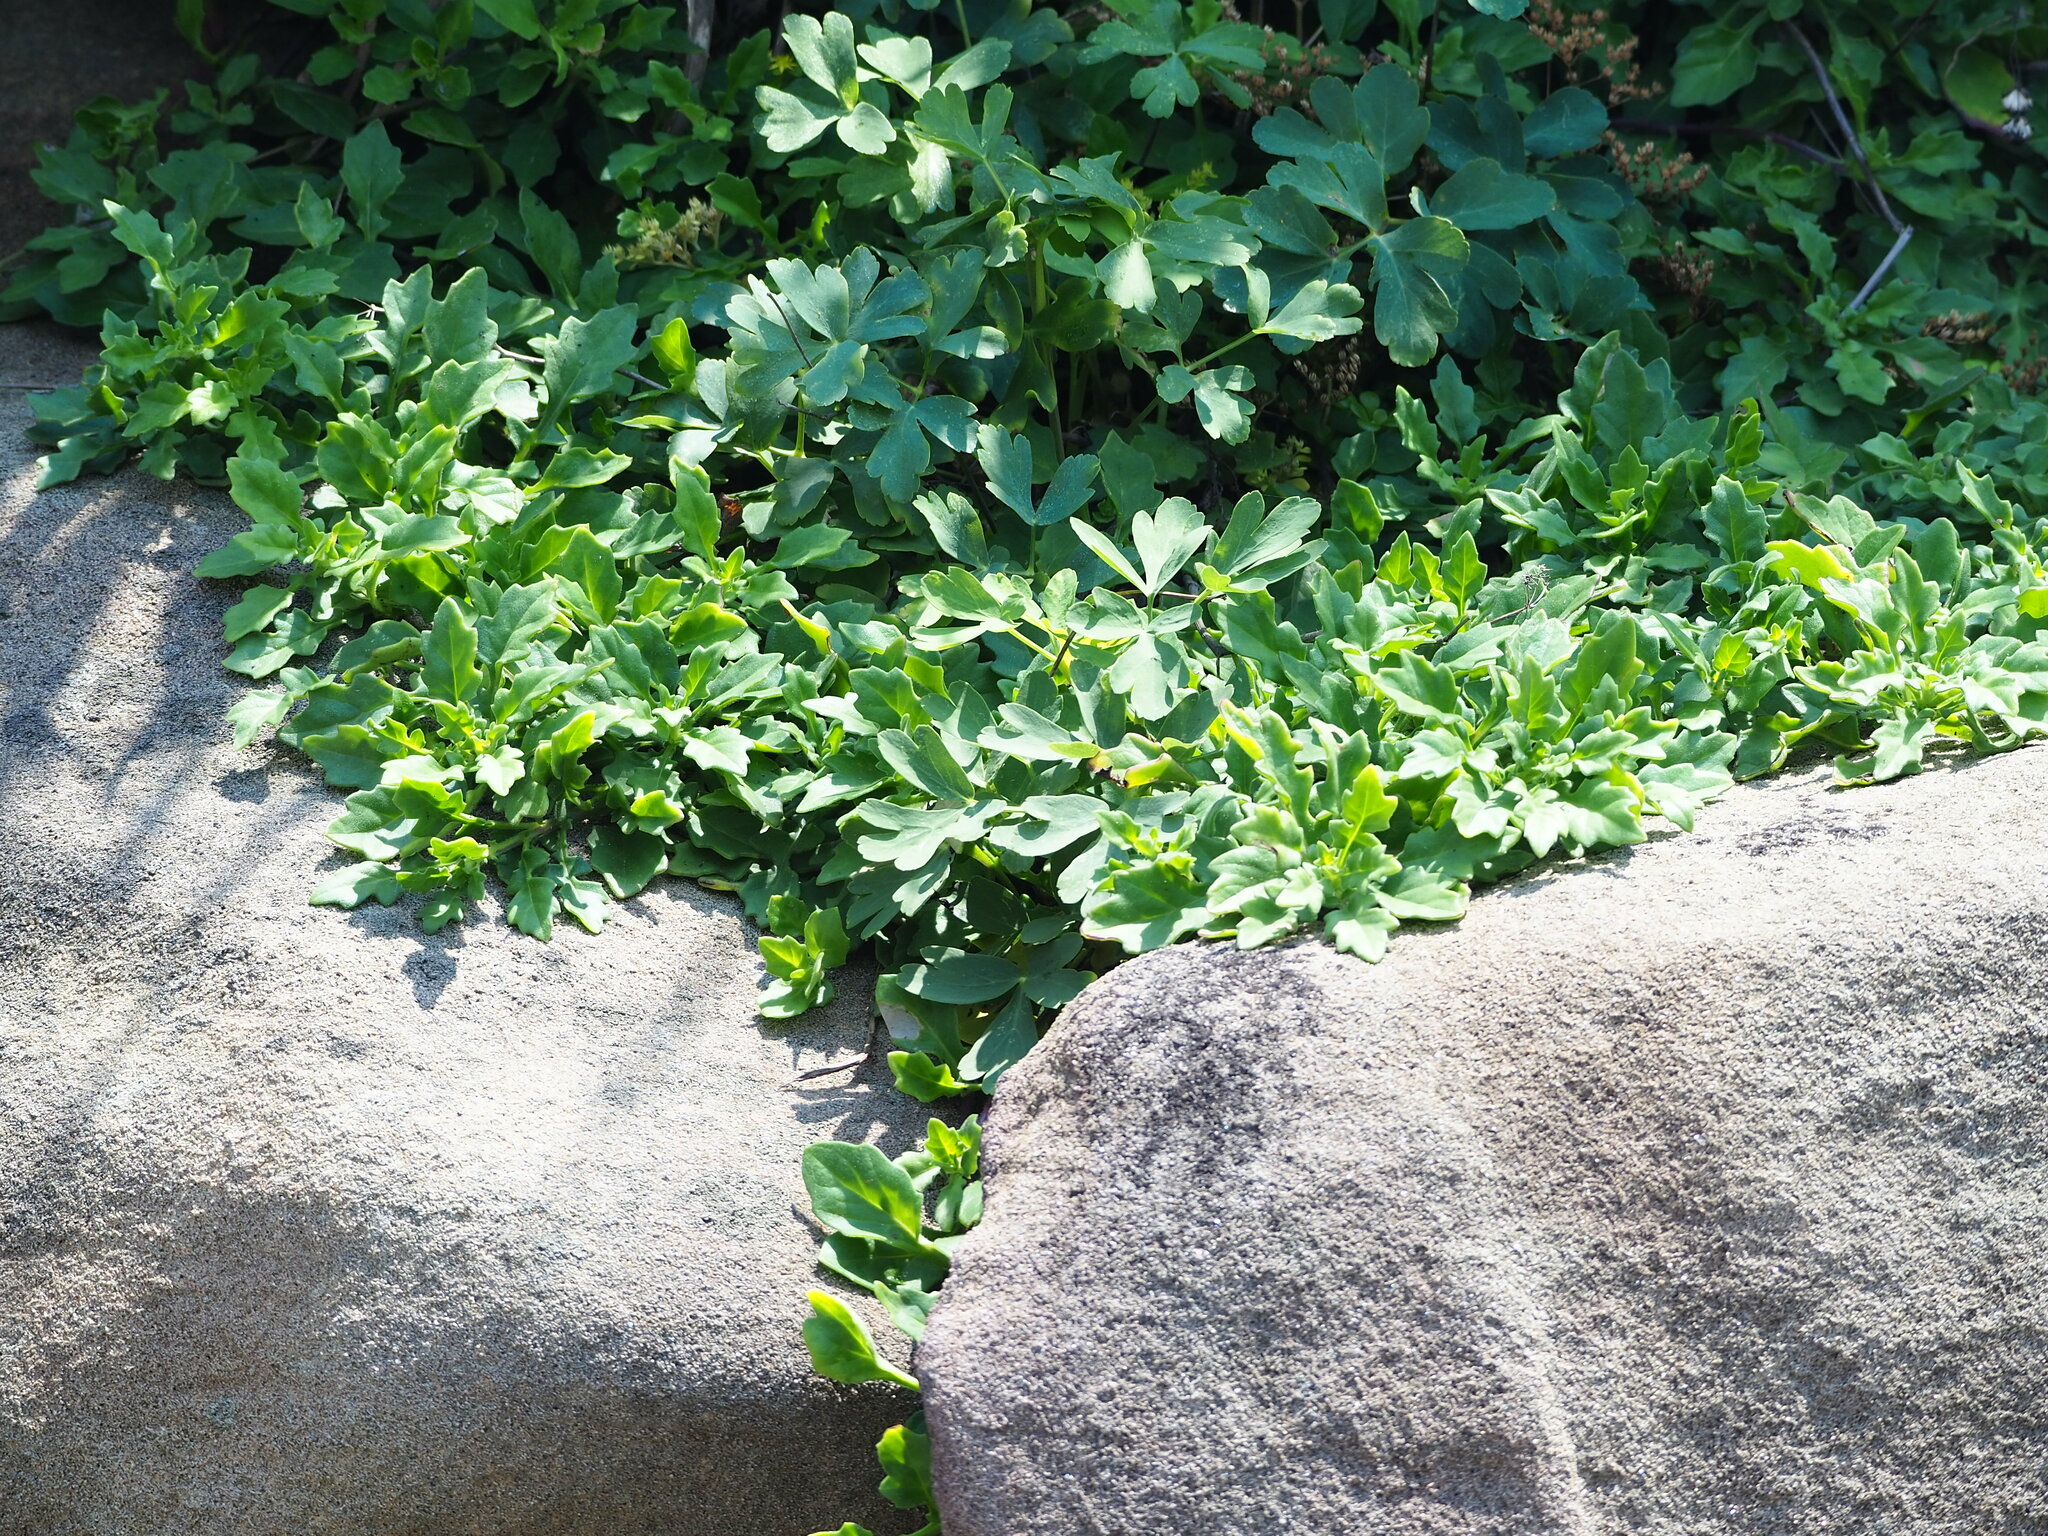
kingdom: Plantae
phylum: Tracheophyta
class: Magnoliopsida
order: Asterales
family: Asteraceae
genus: Gynura
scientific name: Gynura formosana
